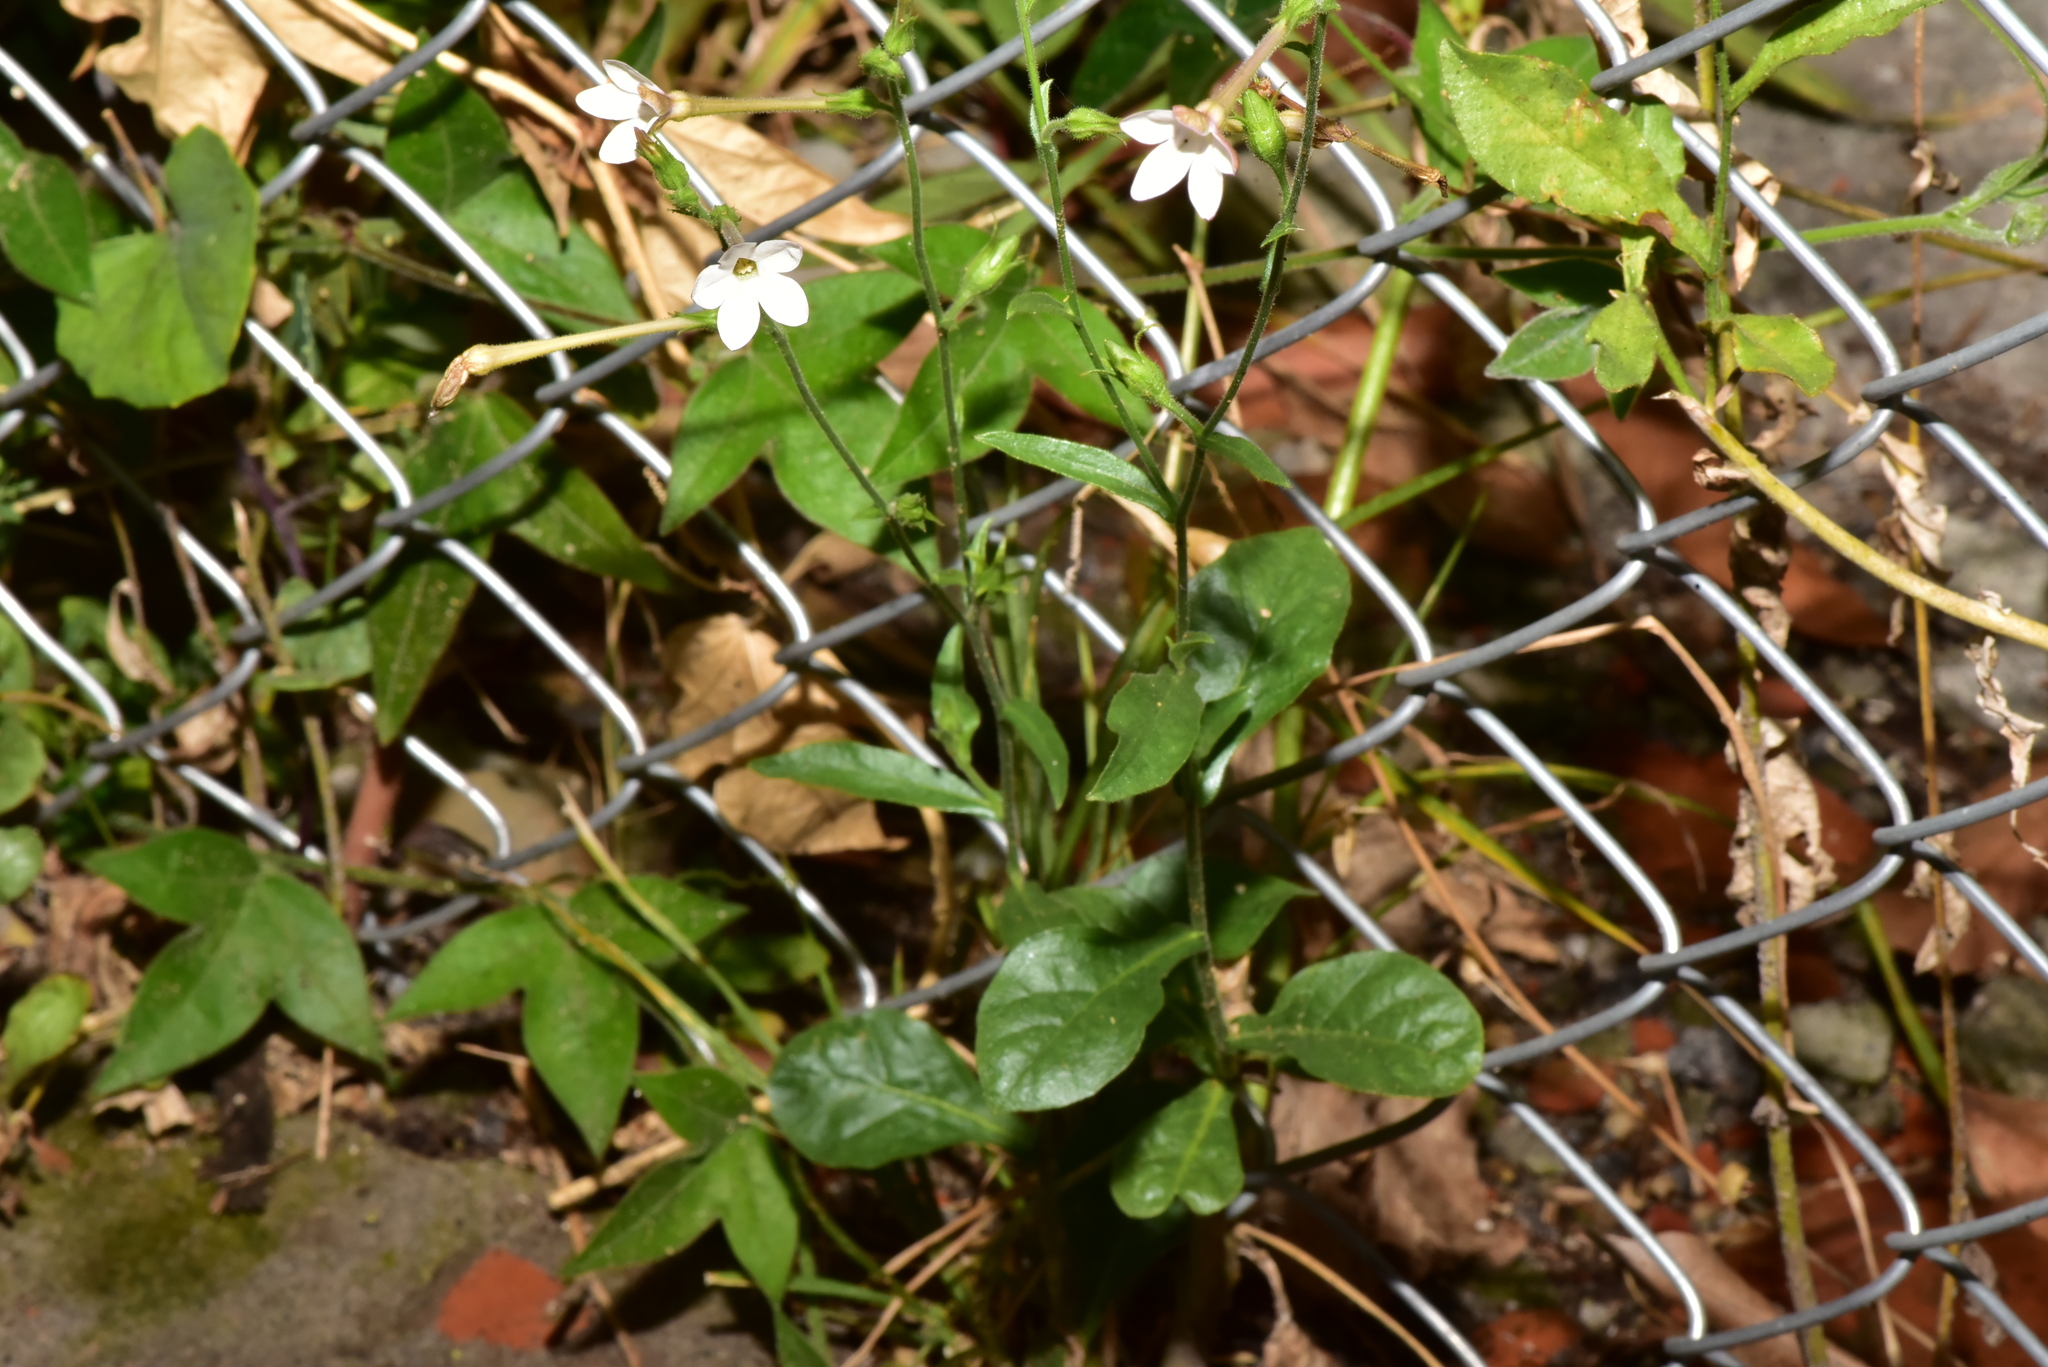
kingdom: Plantae
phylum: Tracheophyta
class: Magnoliopsida
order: Solanales
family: Solanaceae
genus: Nicotiana
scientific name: Nicotiana plumbaginifolia
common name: Tex-mex tobacco
